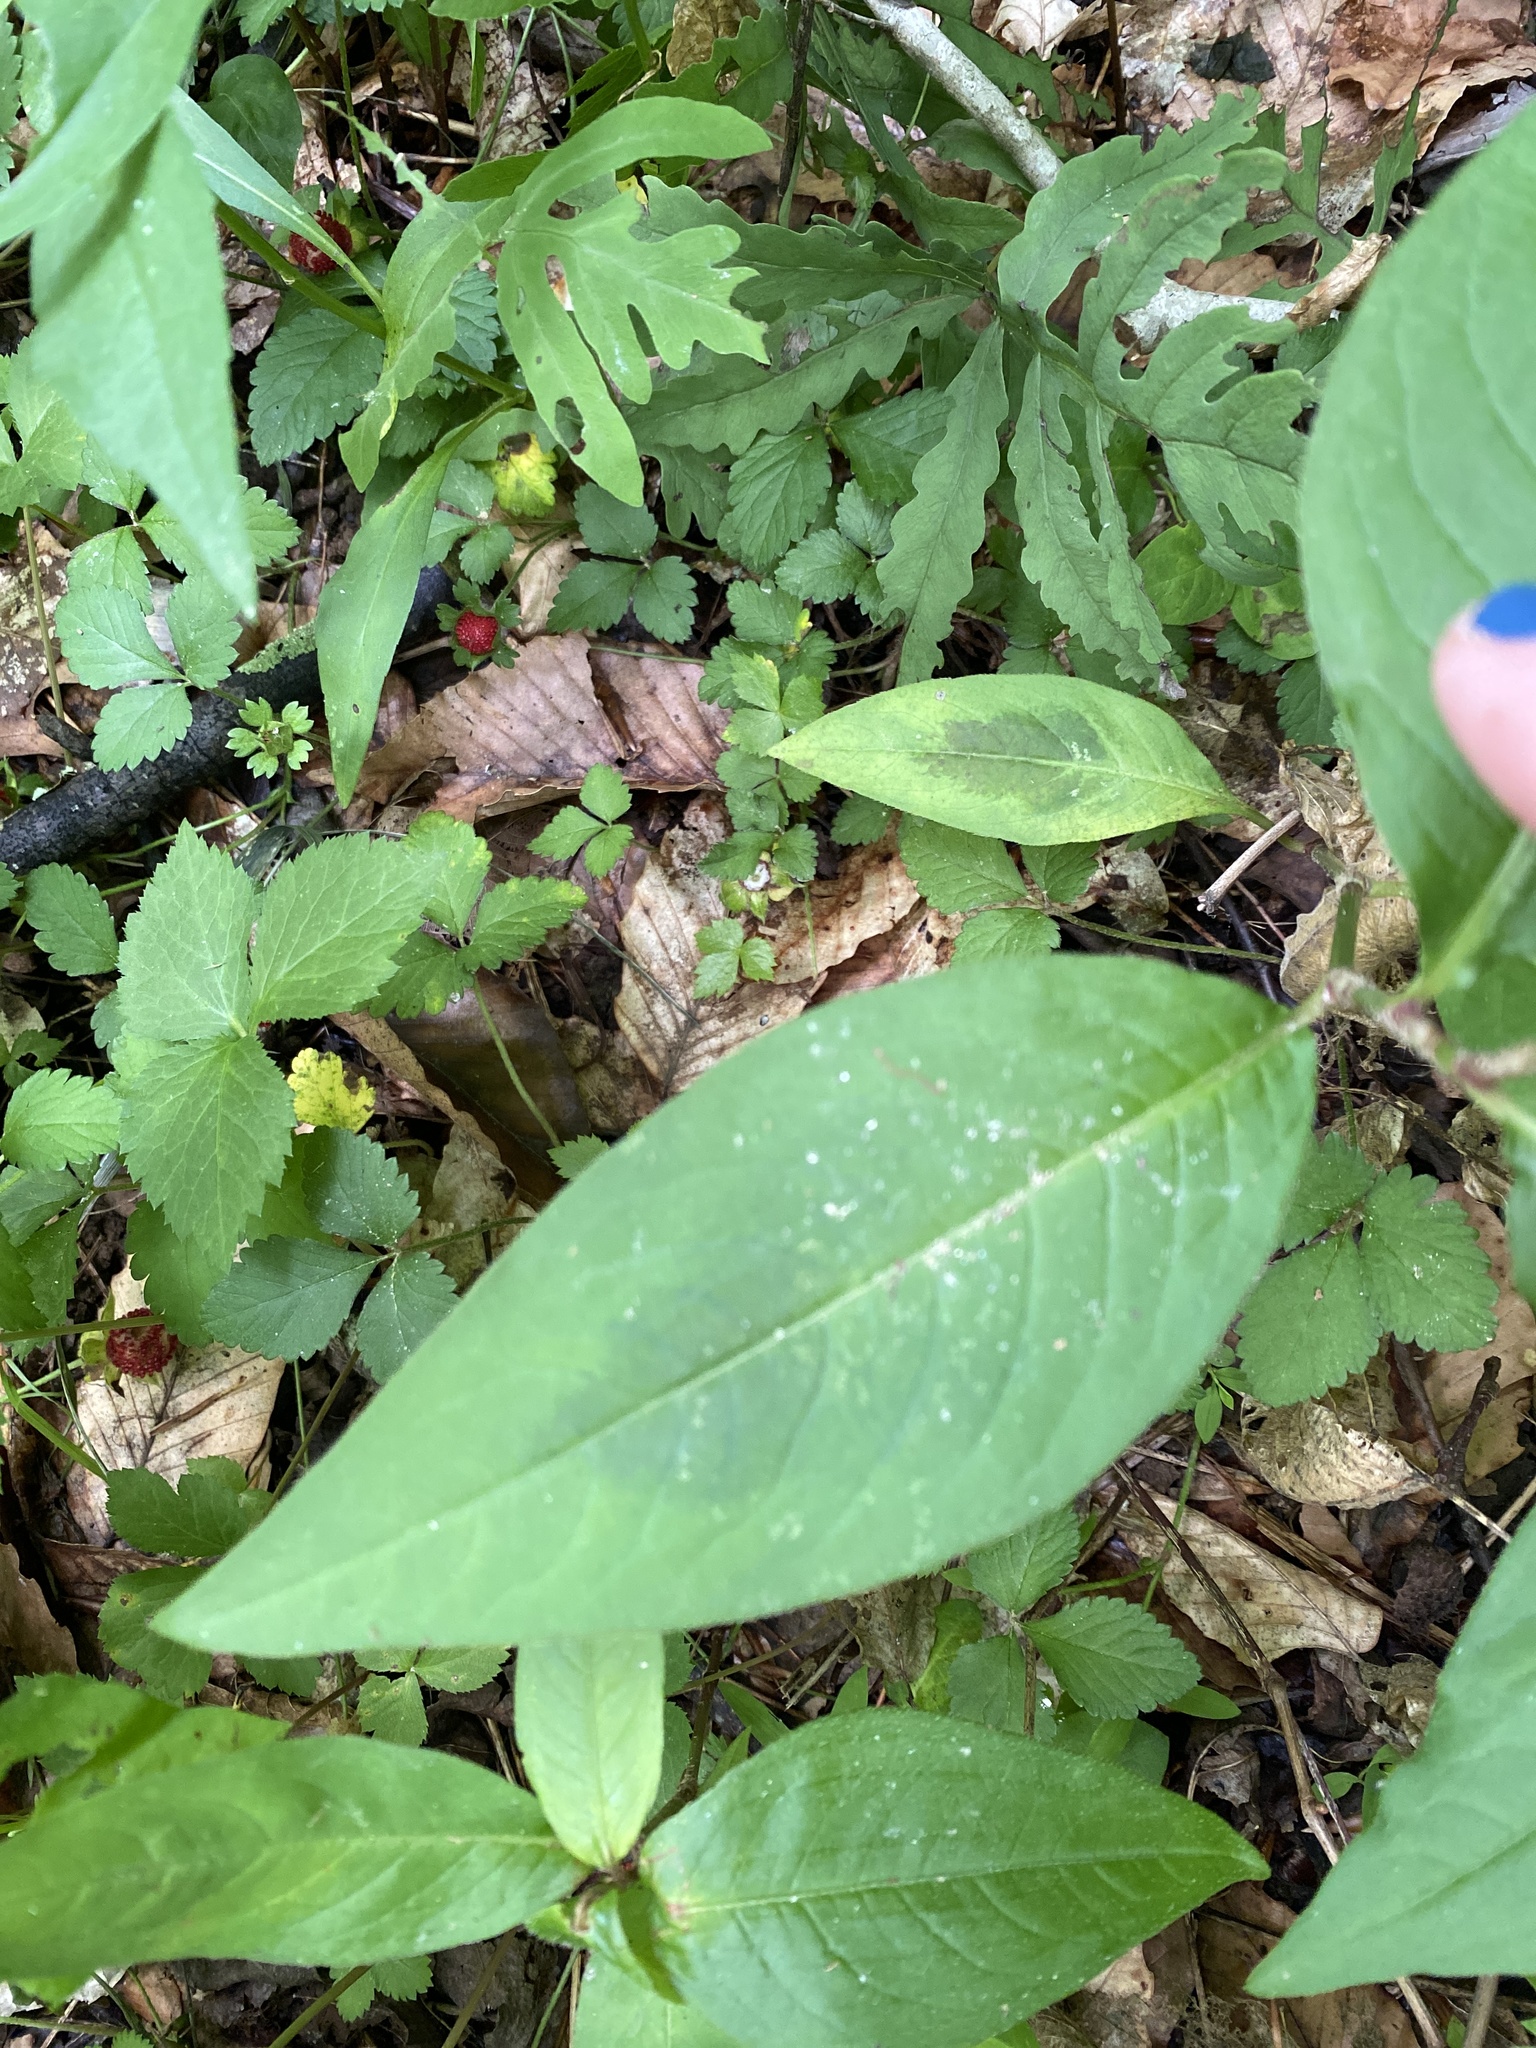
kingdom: Plantae
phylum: Tracheophyta
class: Magnoliopsida
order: Caryophyllales
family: Polygonaceae
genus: Persicaria
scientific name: Persicaria virginiana
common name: Jumpseed
